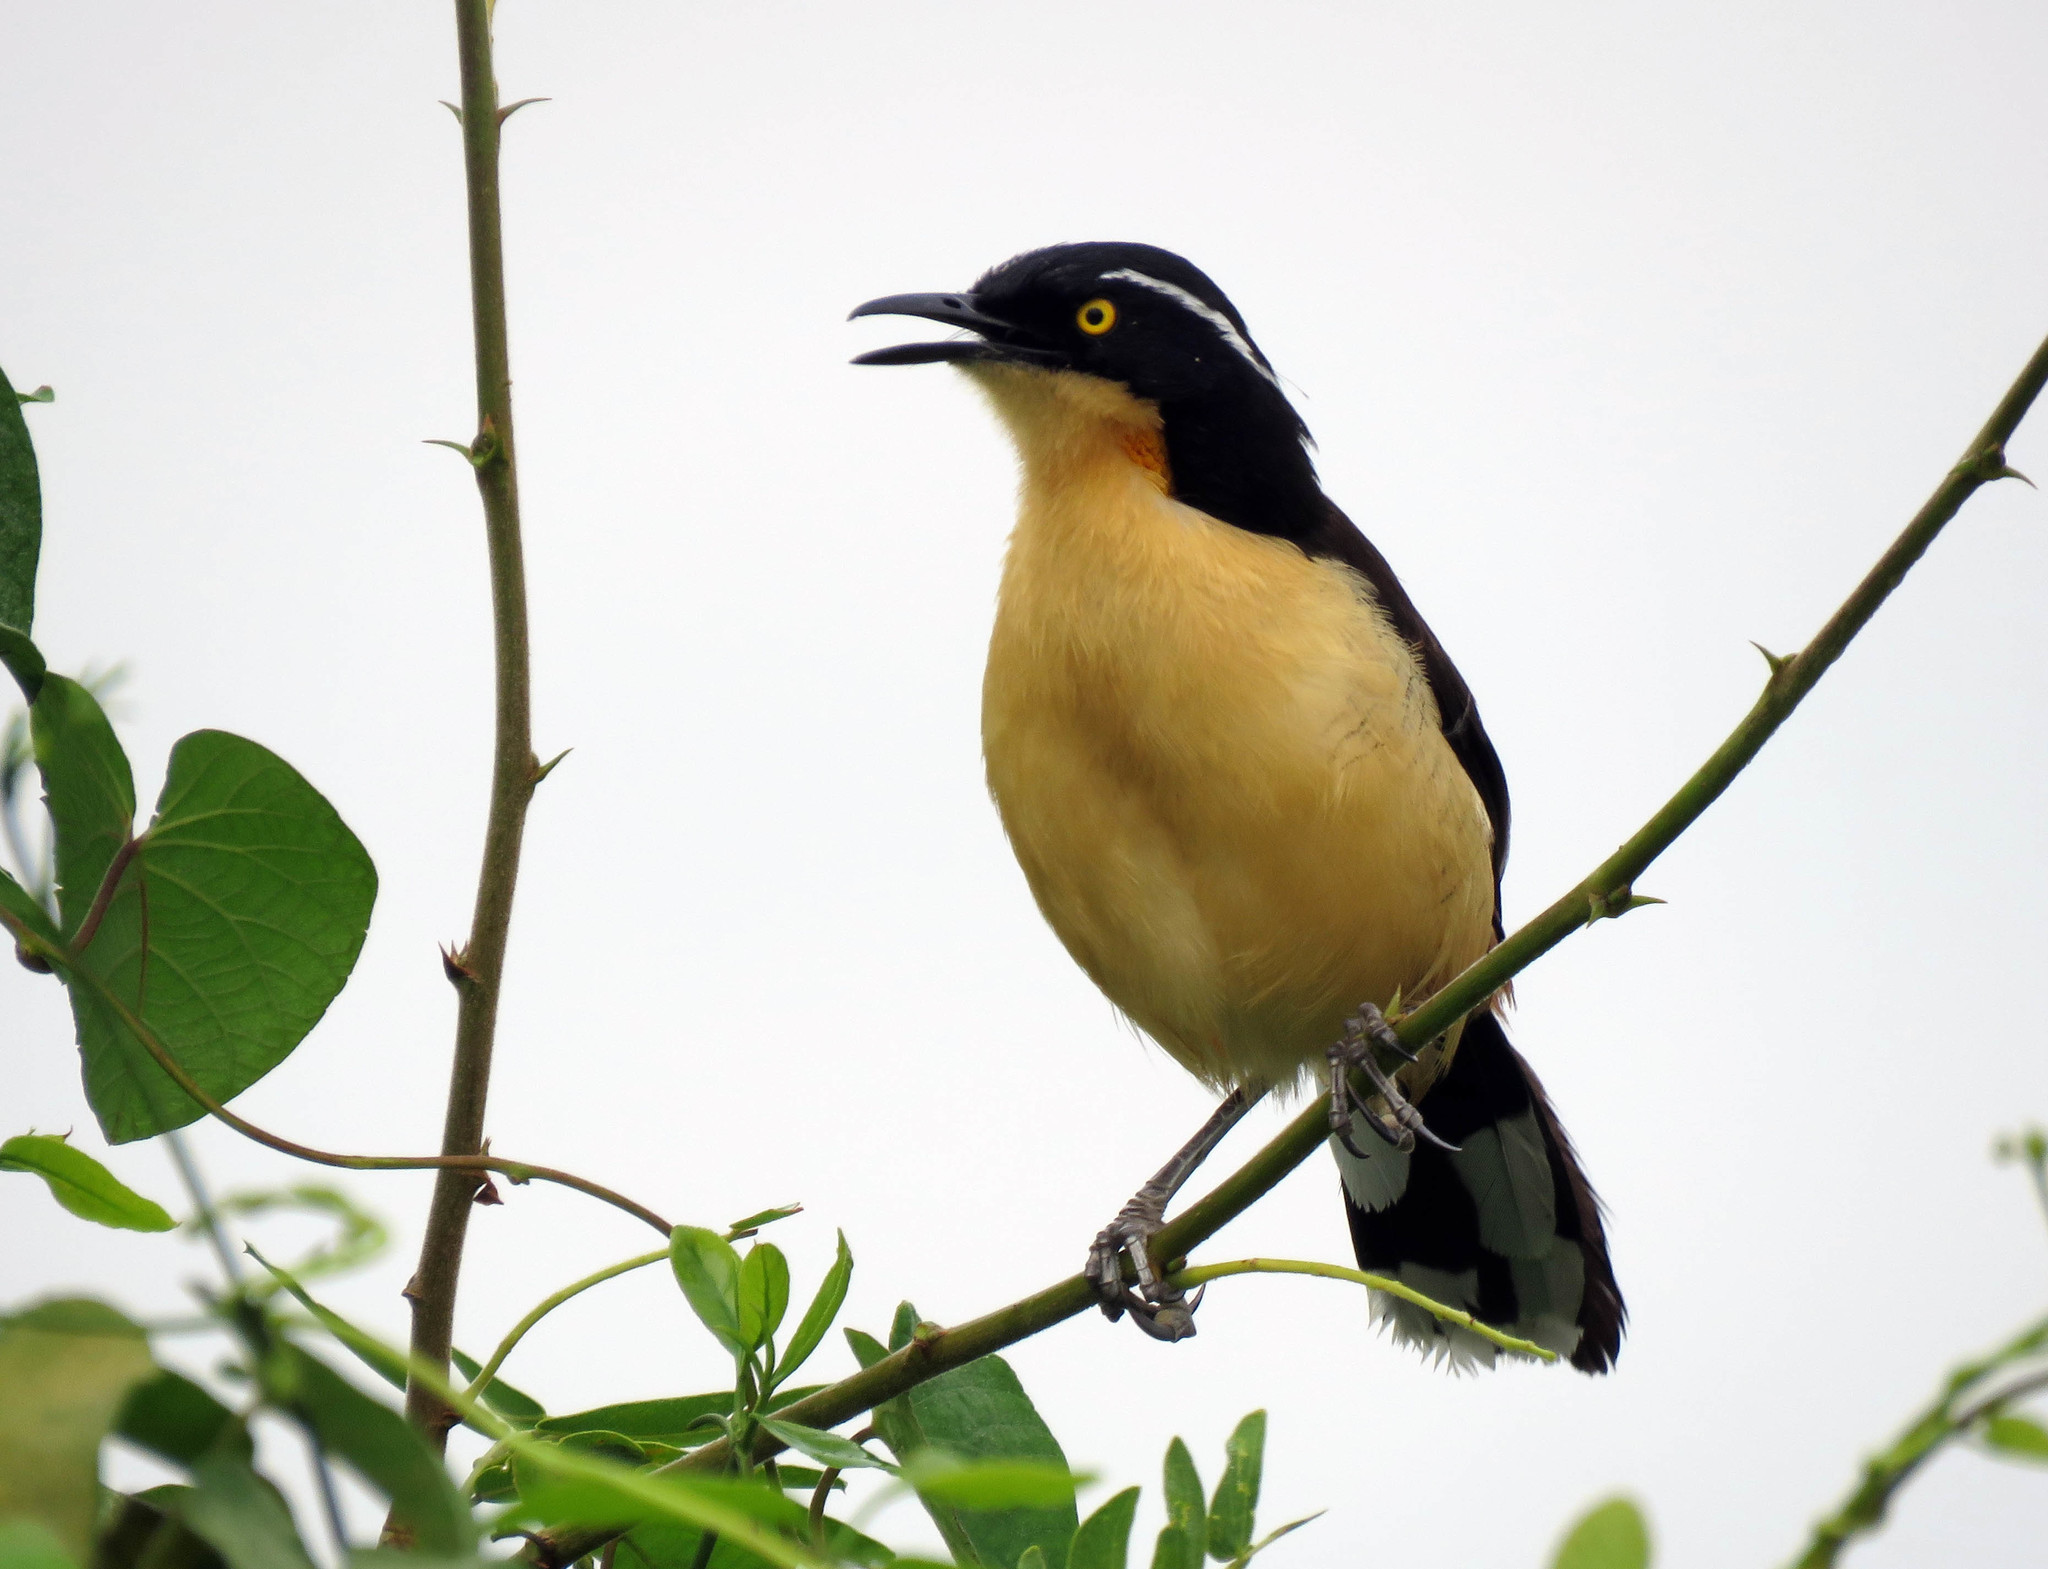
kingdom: Animalia
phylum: Chordata
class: Aves
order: Passeriformes
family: Donacobiidae
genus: Donacobius
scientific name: Donacobius atricapilla
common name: Black-capped donacobius
